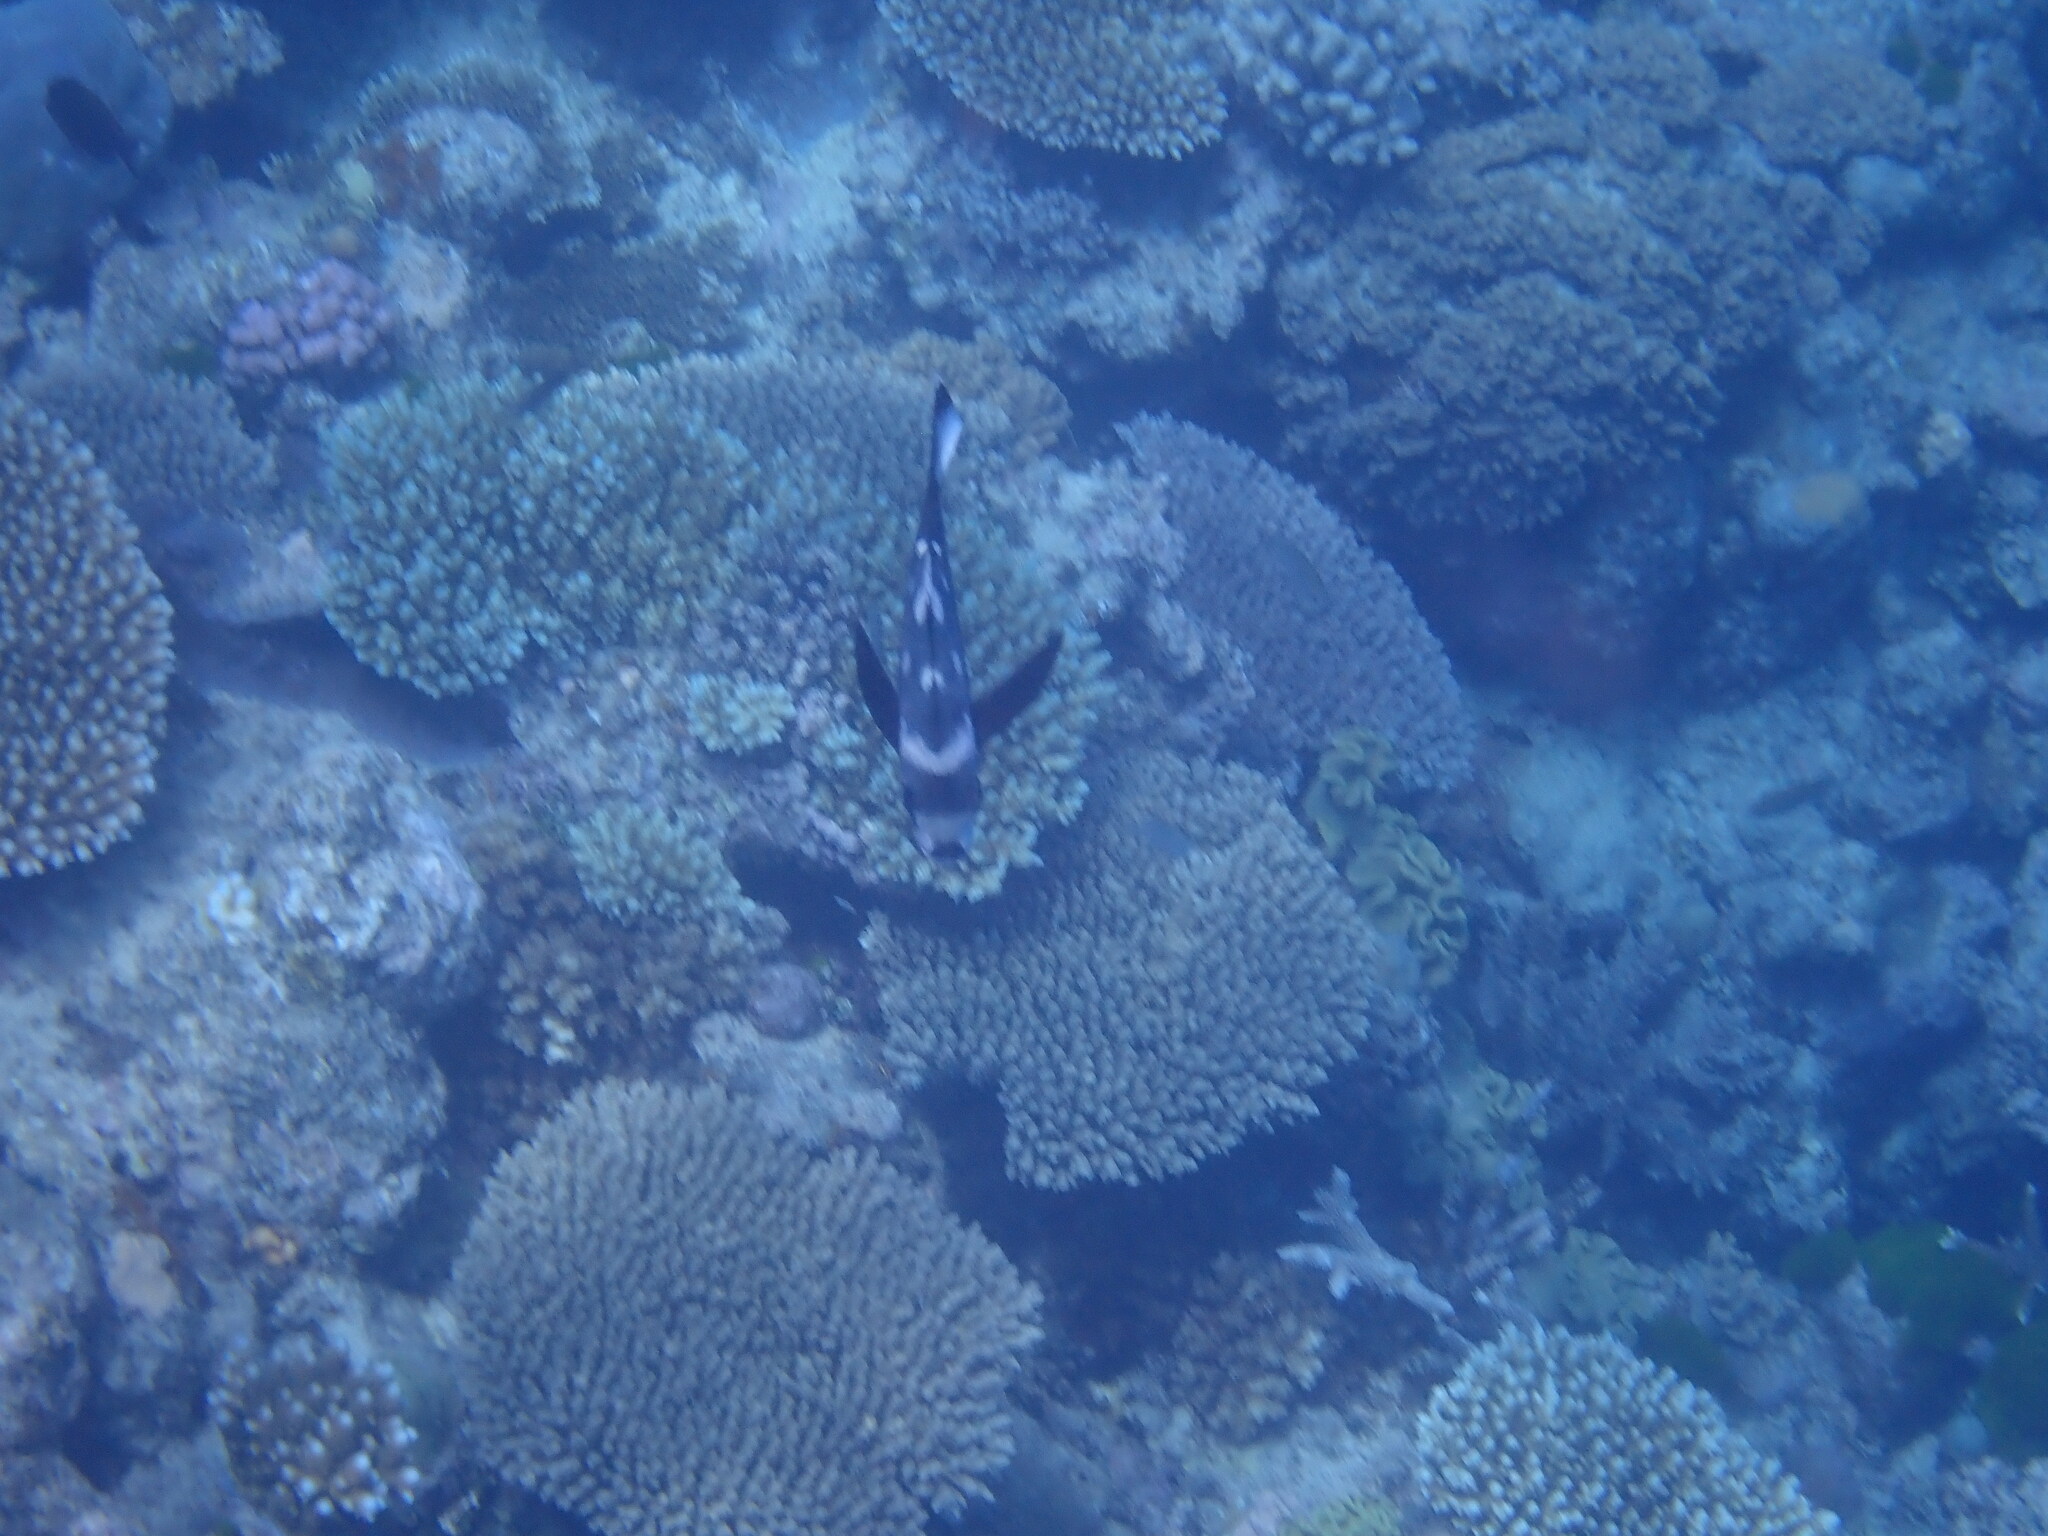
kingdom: Animalia
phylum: Chordata
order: Perciformes
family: Lutjanidae
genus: Macolor
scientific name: Macolor niger
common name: Black snapper
